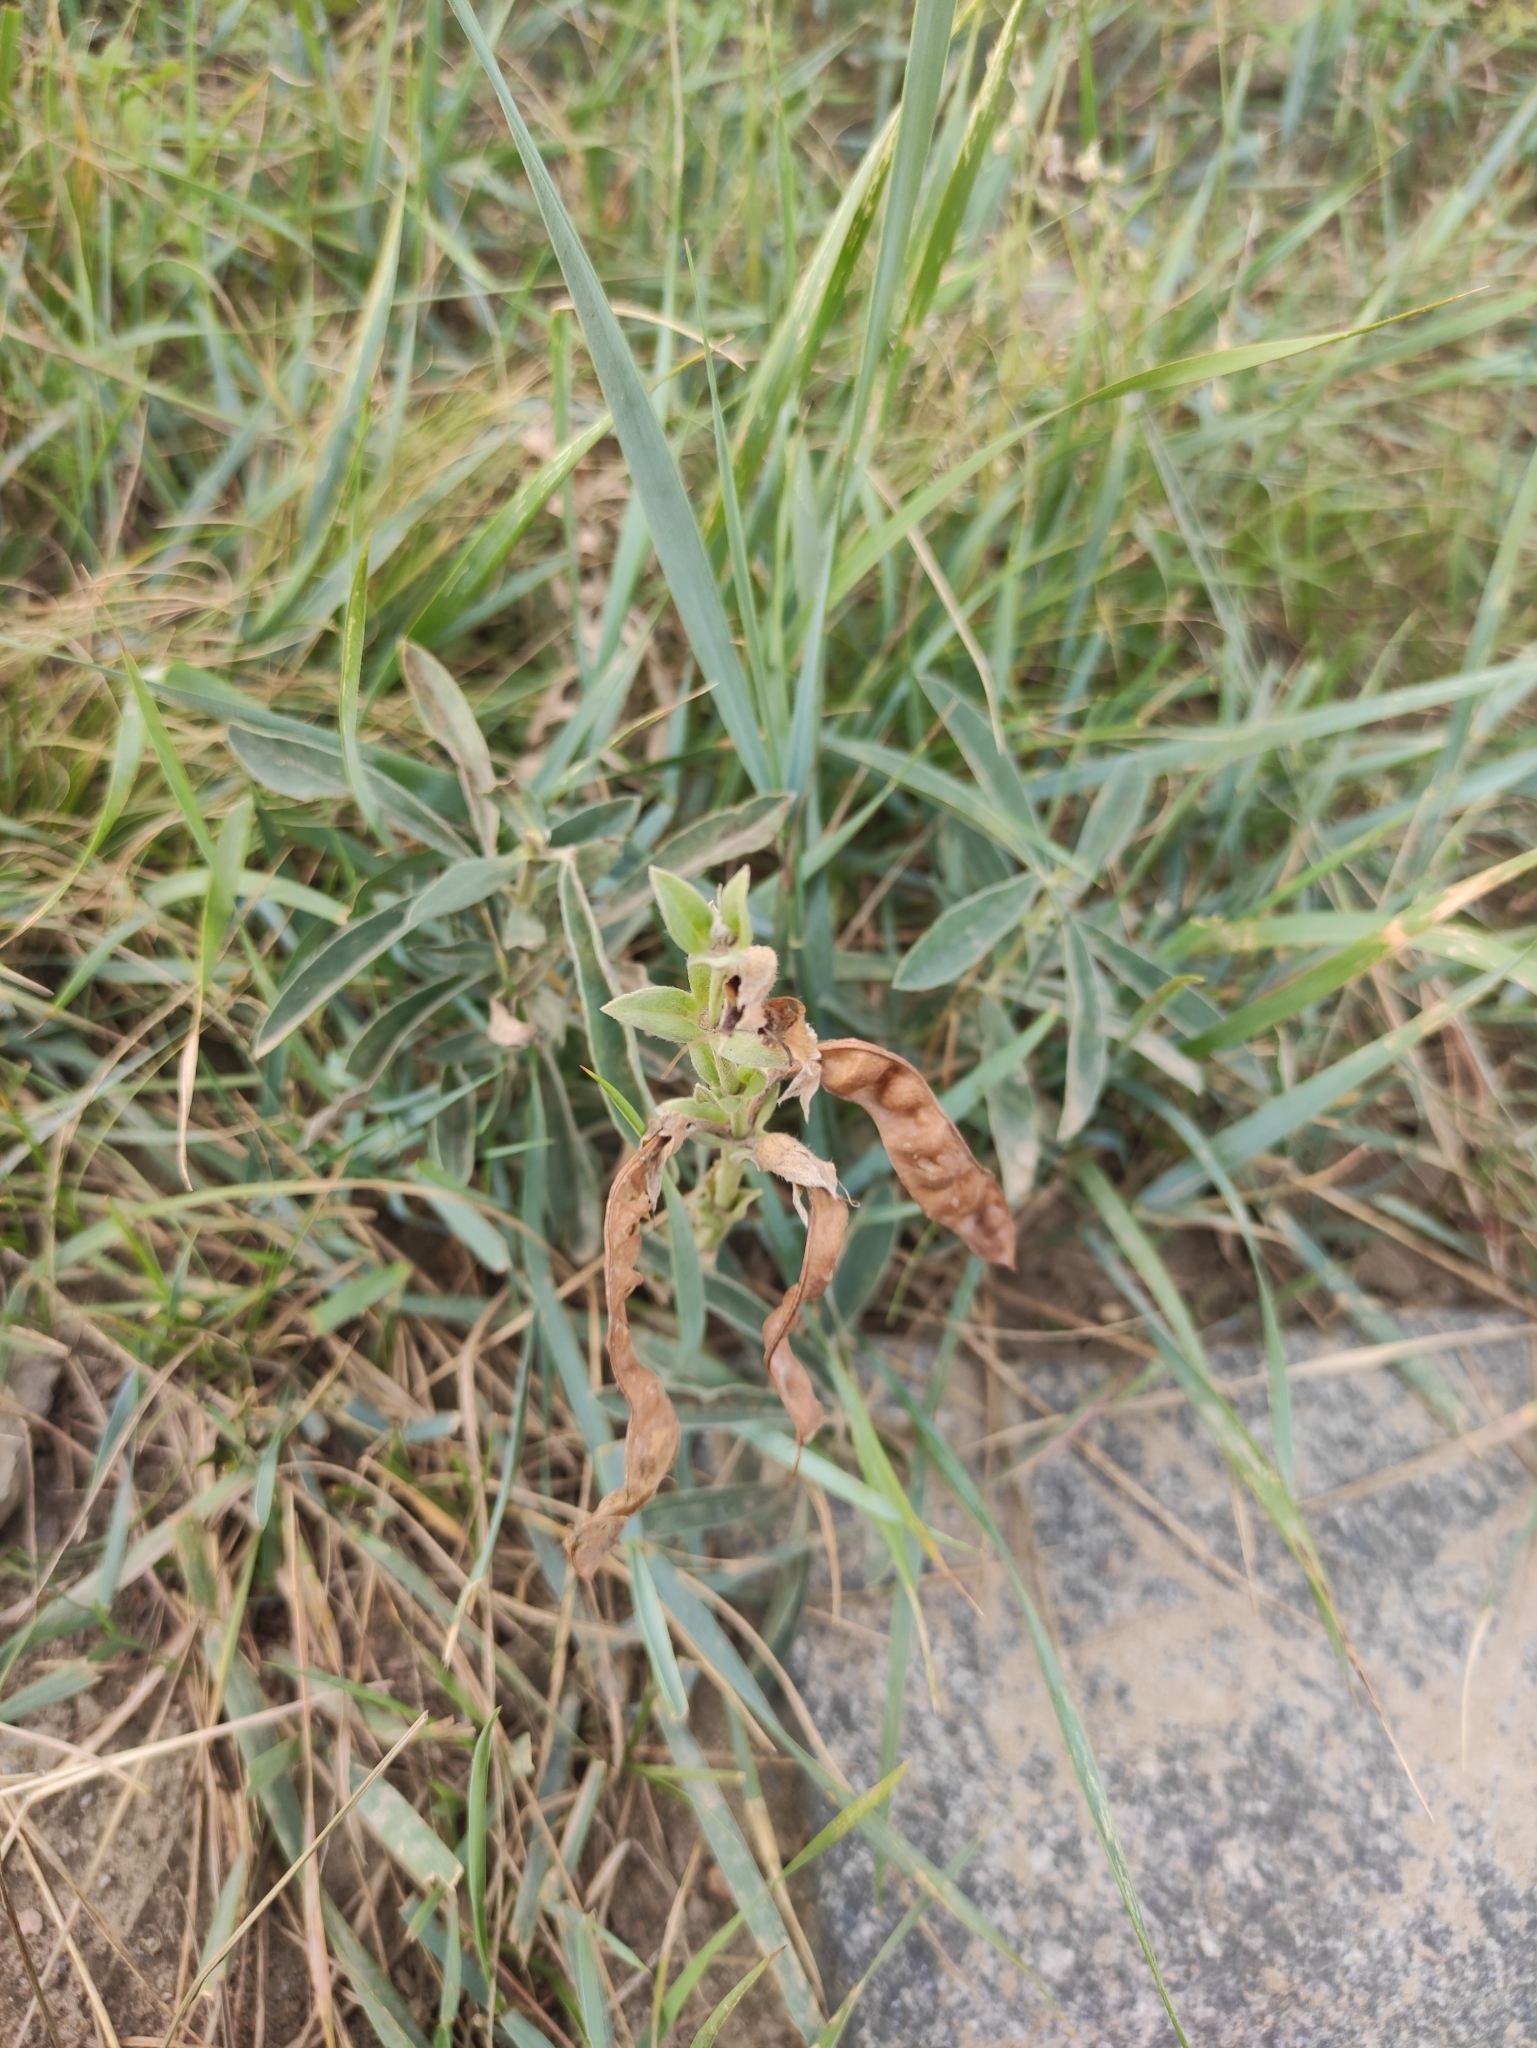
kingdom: Plantae
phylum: Tracheophyta
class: Magnoliopsida
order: Fabales
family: Fabaceae
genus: Thermopsis
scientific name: Thermopsis lanceolata
